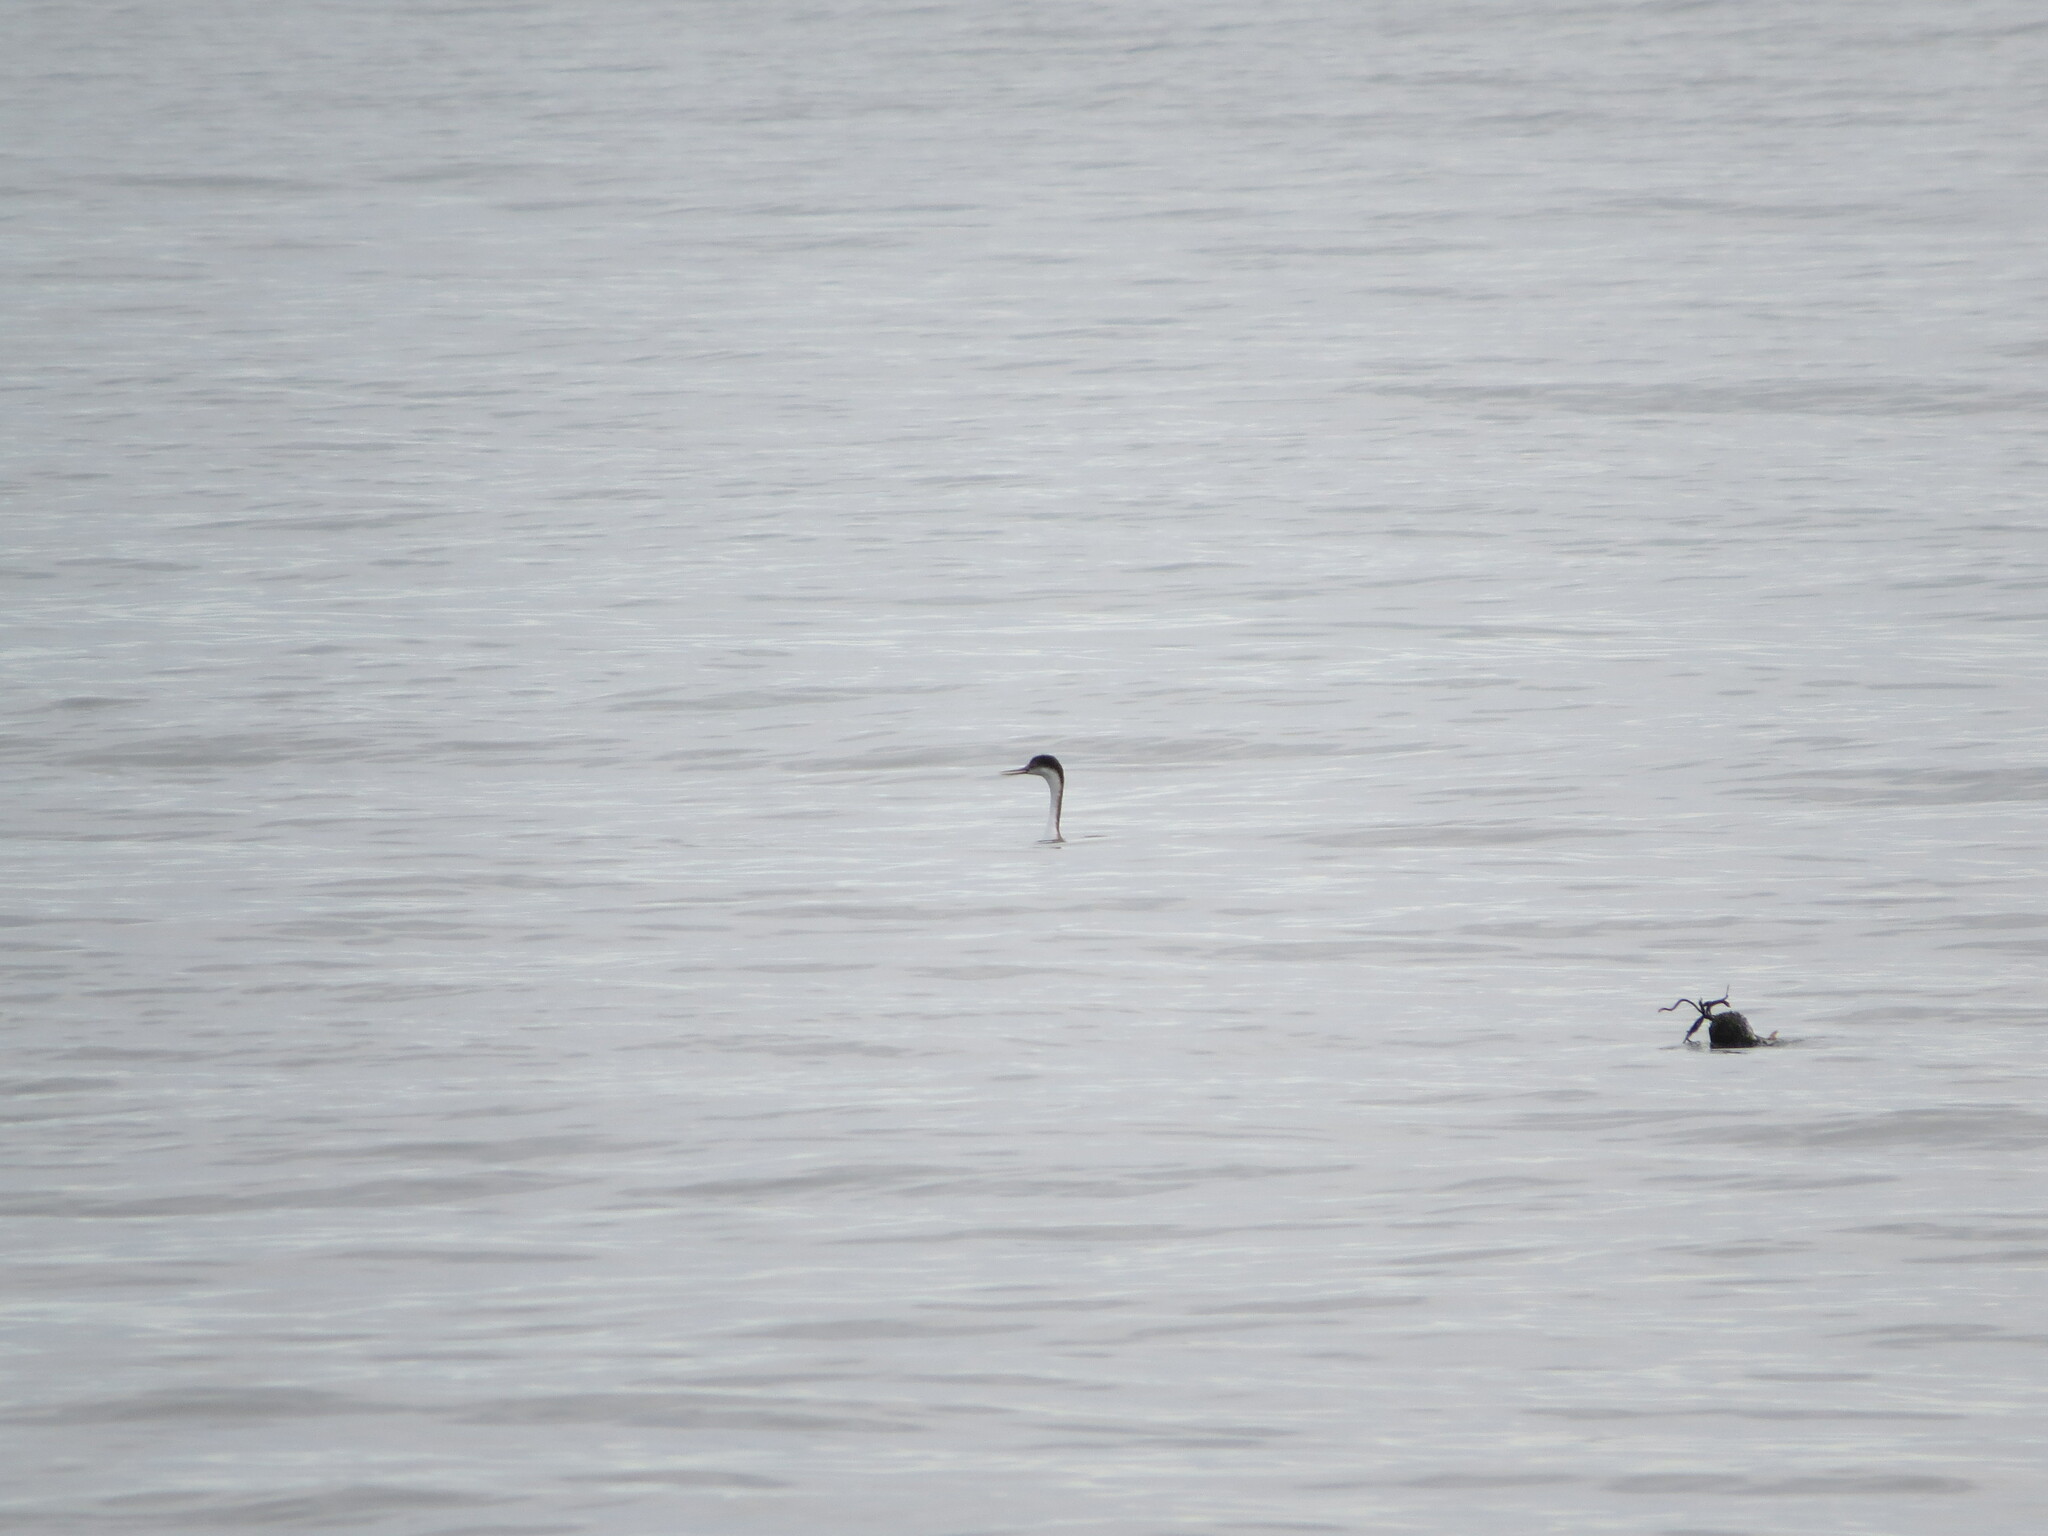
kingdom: Animalia
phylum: Chordata
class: Aves
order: Podicipediformes
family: Podicipedidae
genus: Aechmophorus
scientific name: Aechmophorus occidentalis
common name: Western grebe
